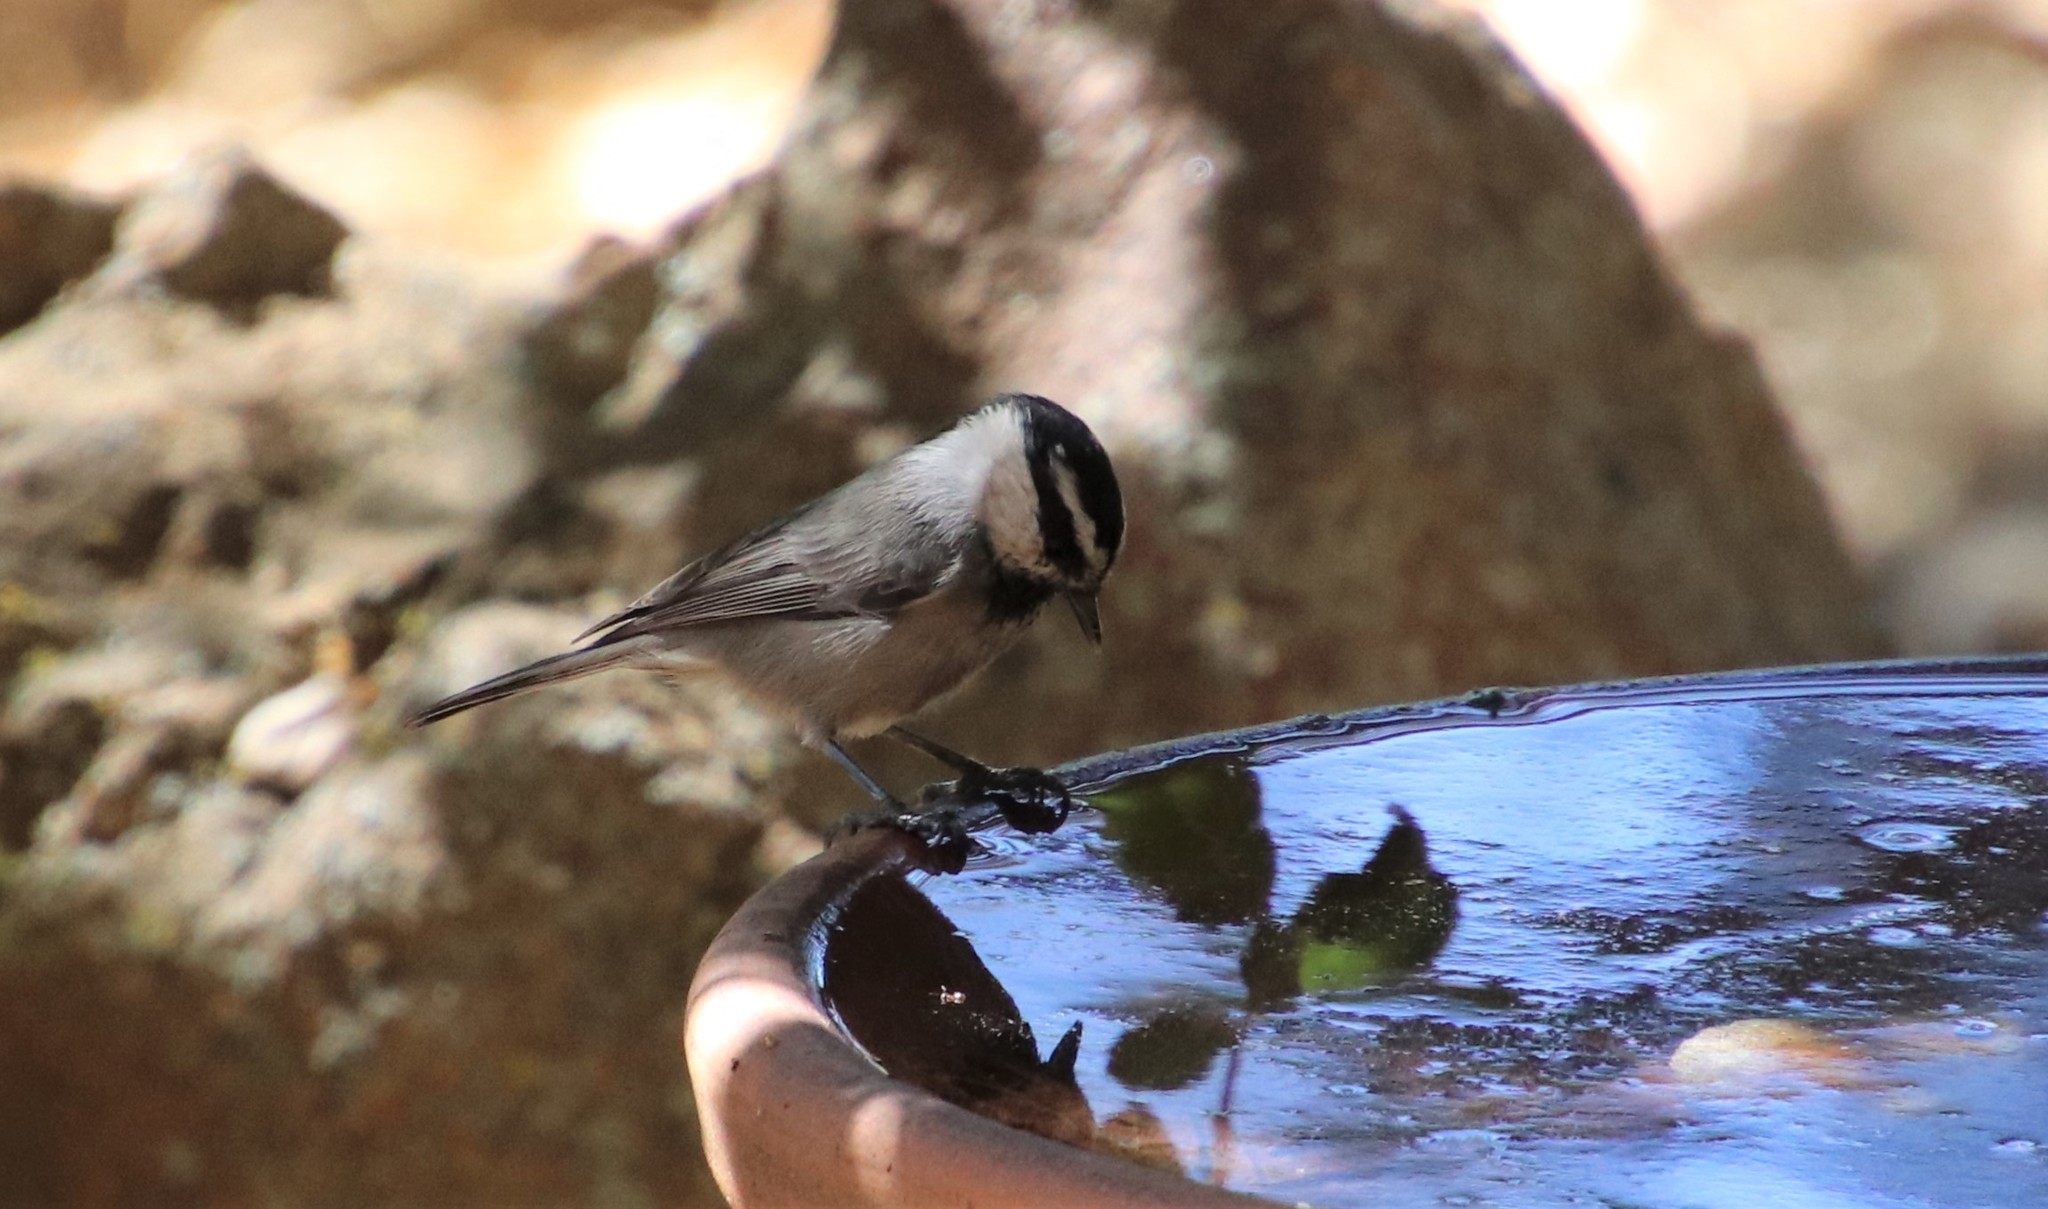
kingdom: Animalia
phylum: Chordata
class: Aves
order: Passeriformes
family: Paridae
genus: Poecile
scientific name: Poecile gambeli
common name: Mountain chickadee
